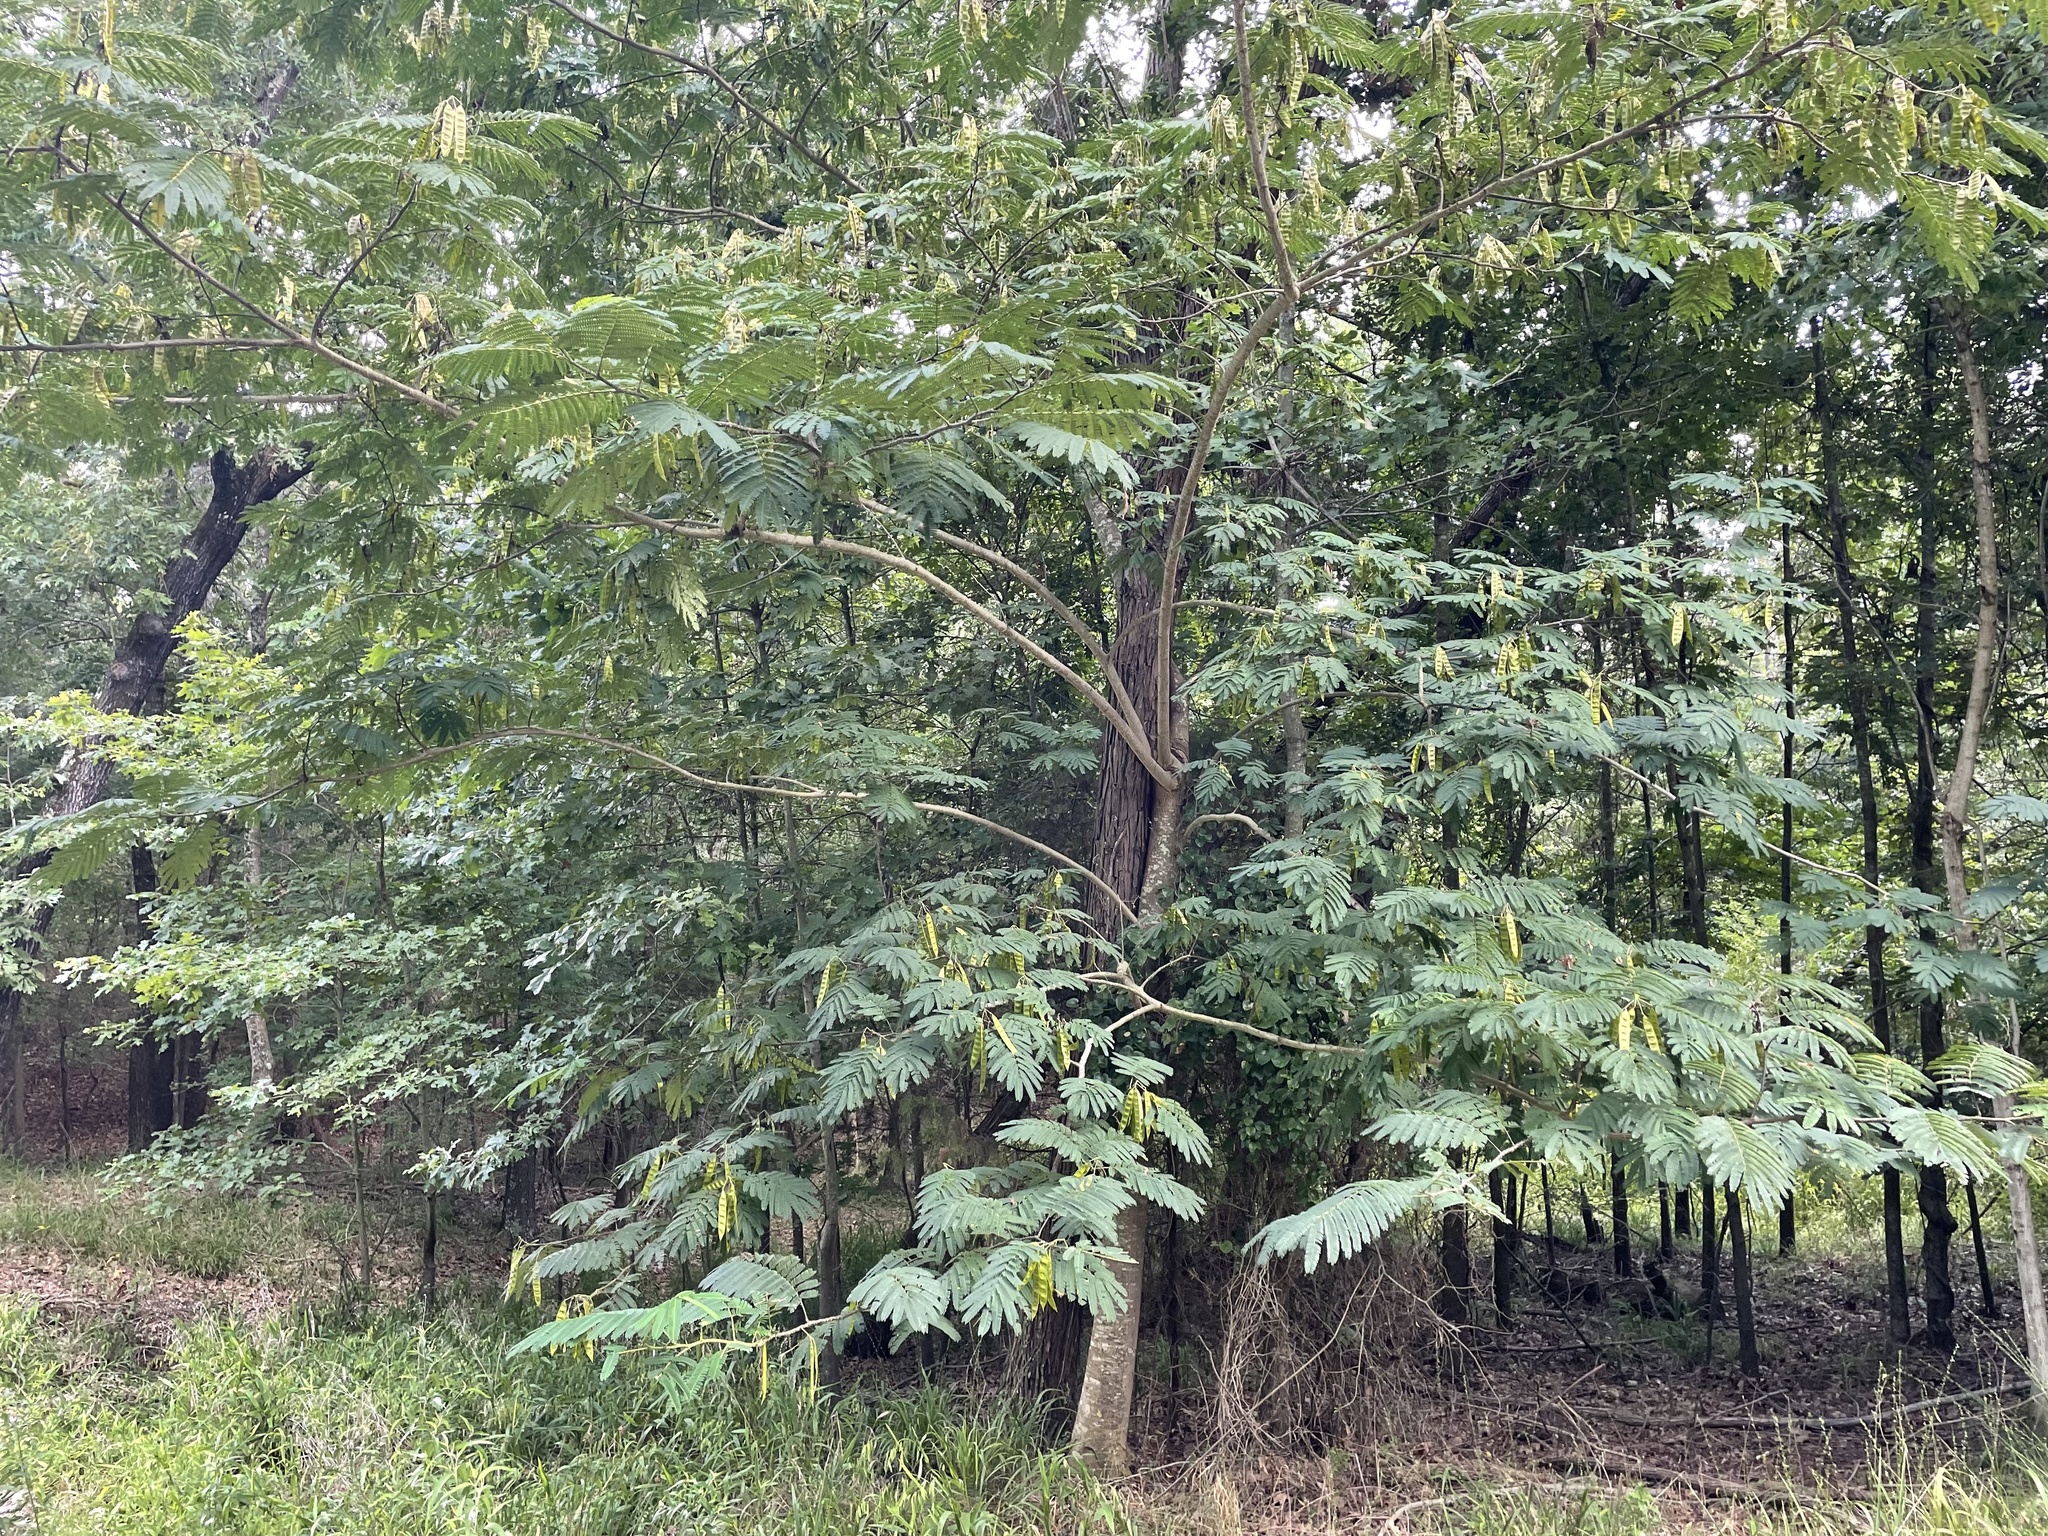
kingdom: Plantae
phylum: Tracheophyta
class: Magnoliopsida
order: Fabales
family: Fabaceae
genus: Albizia
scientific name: Albizia julibrissin
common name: Silktree
